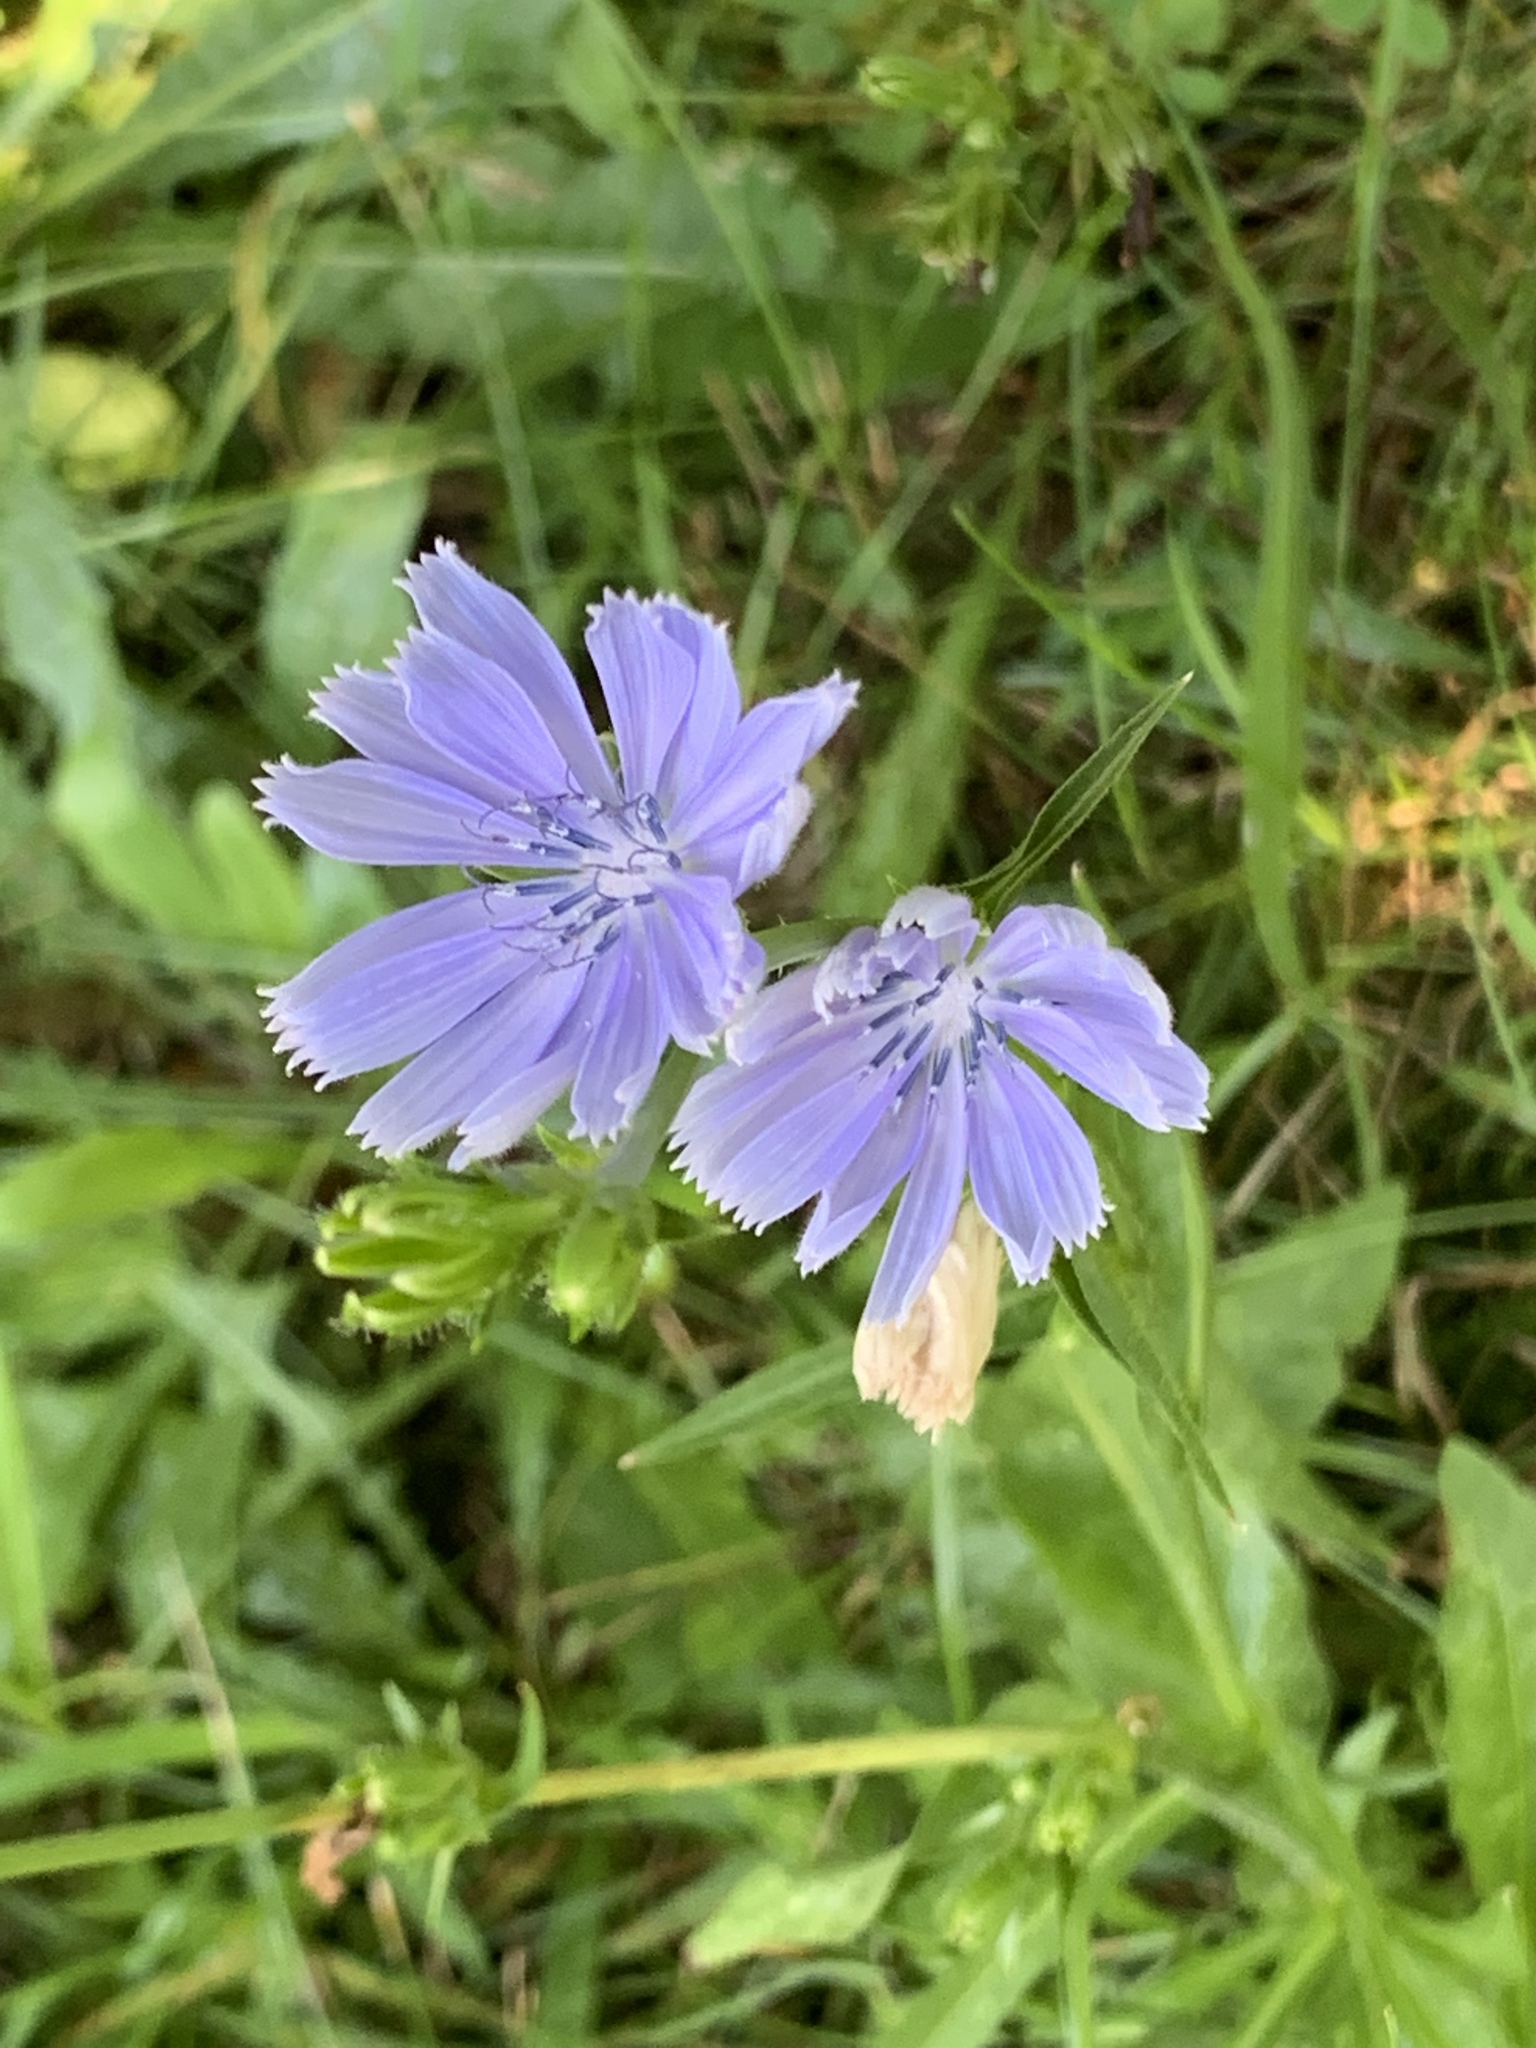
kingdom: Plantae
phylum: Tracheophyta
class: Magnoliopsida
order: Asterales
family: Asteraceae
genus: Cichorium
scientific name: Cichorium intybus
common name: Chicory
